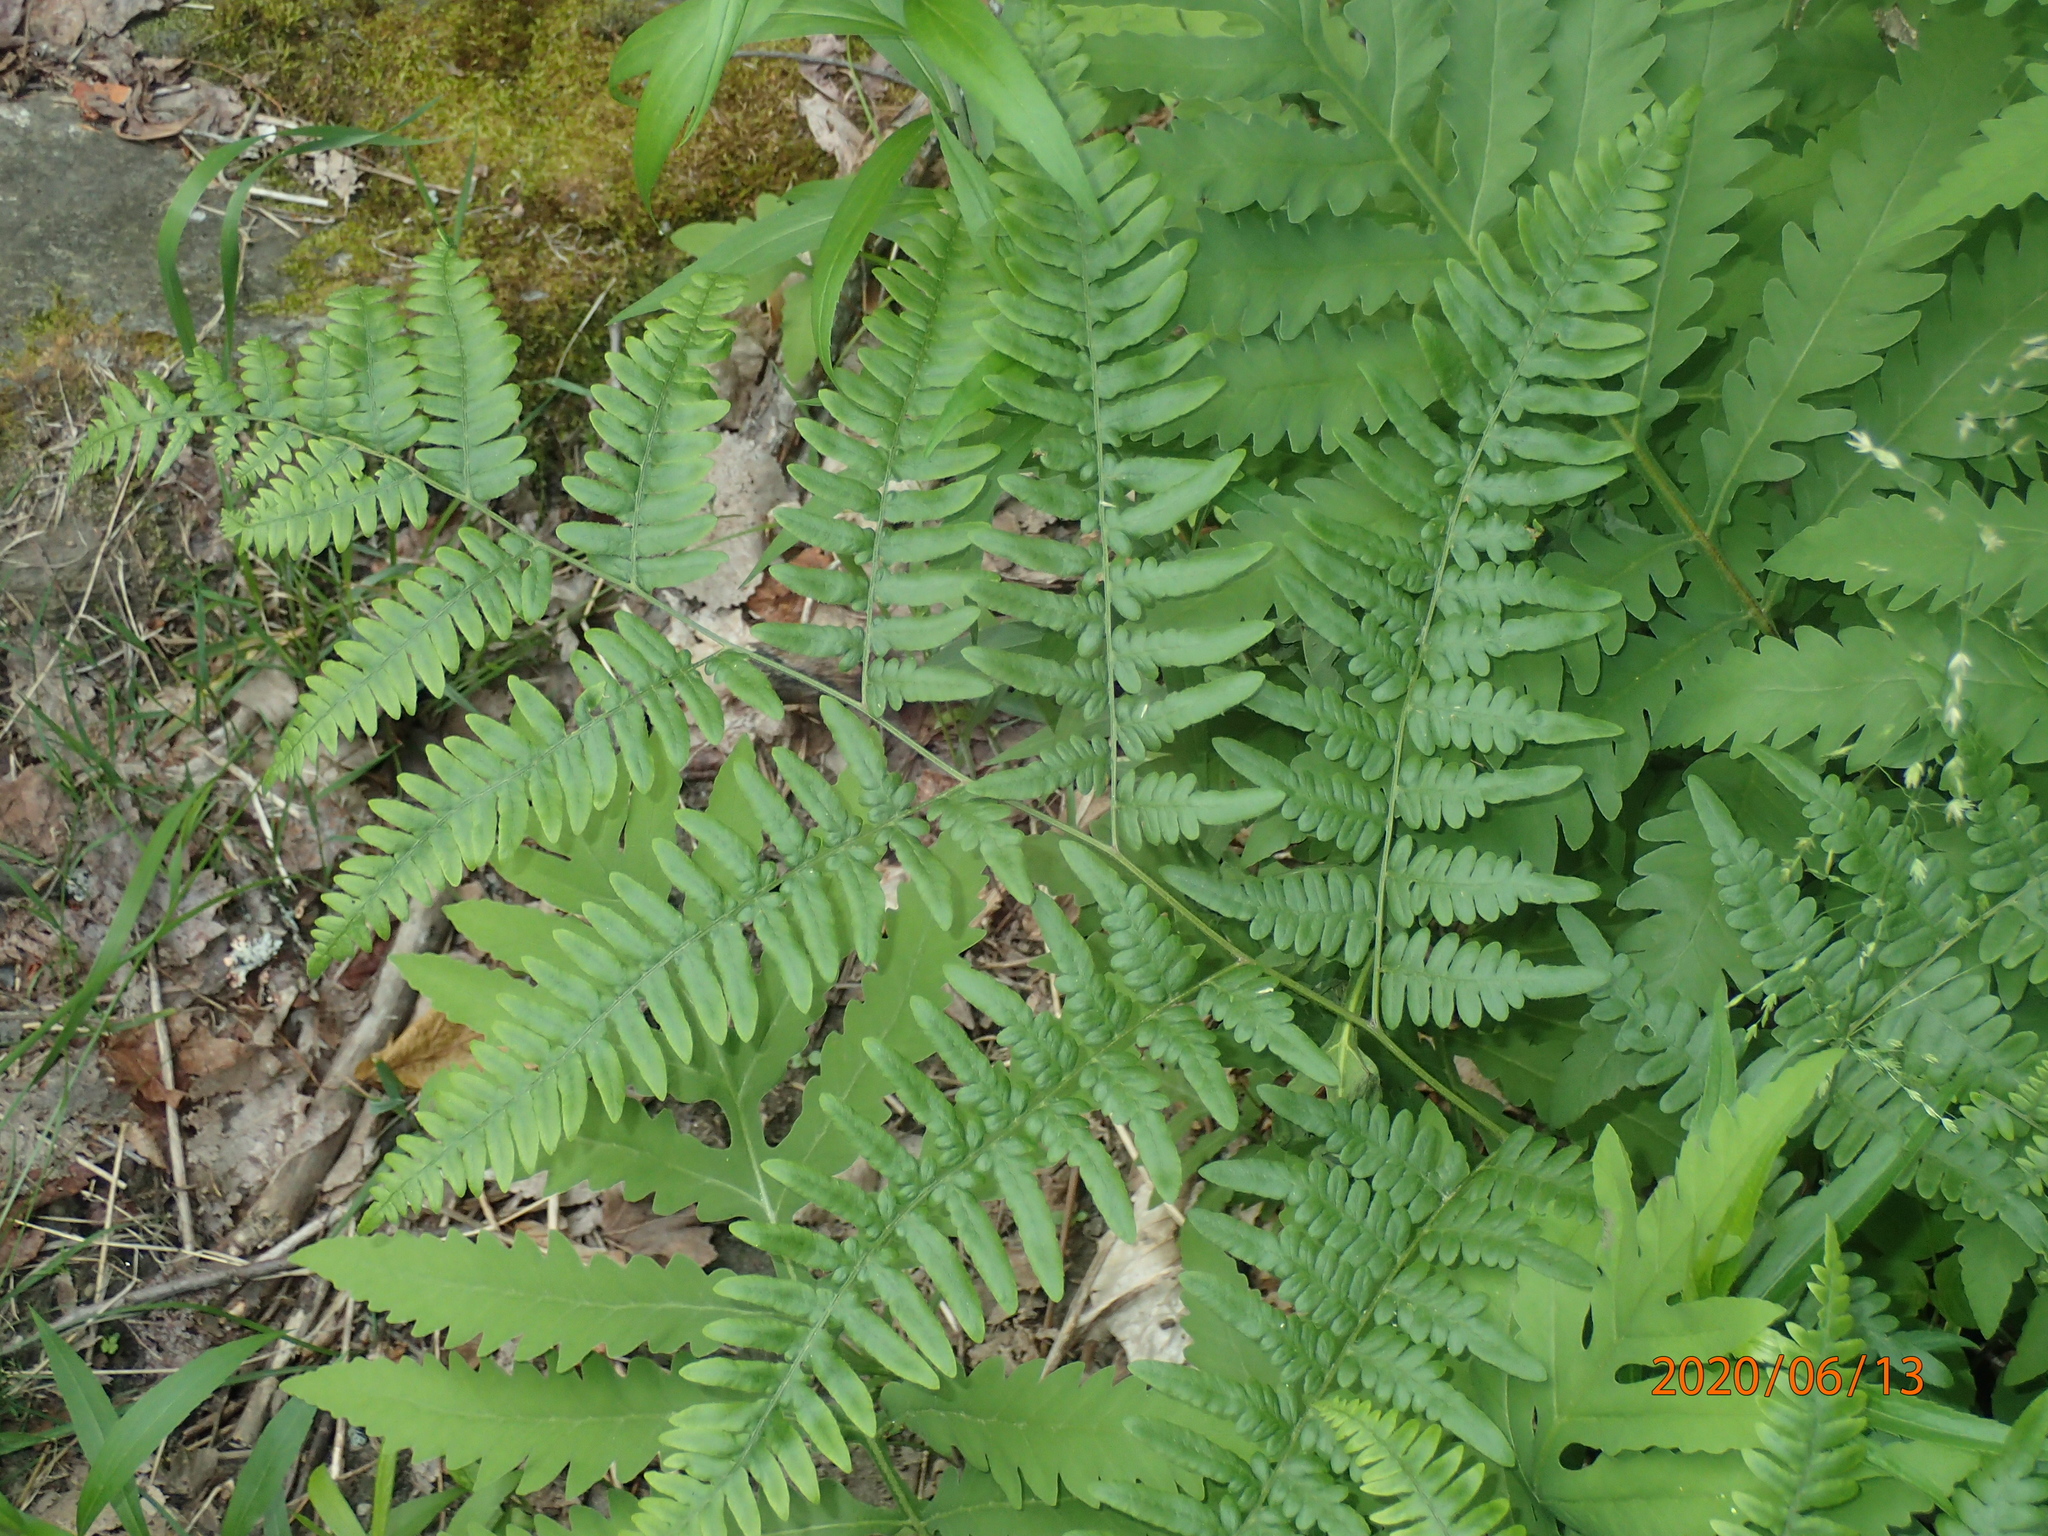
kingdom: Plantae
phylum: Tracheophyta
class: Polypodiopsida
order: Polypodiales
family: Dennstaedtiaceae
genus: Pteridium
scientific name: Pteridium aquilinum
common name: Bracken
